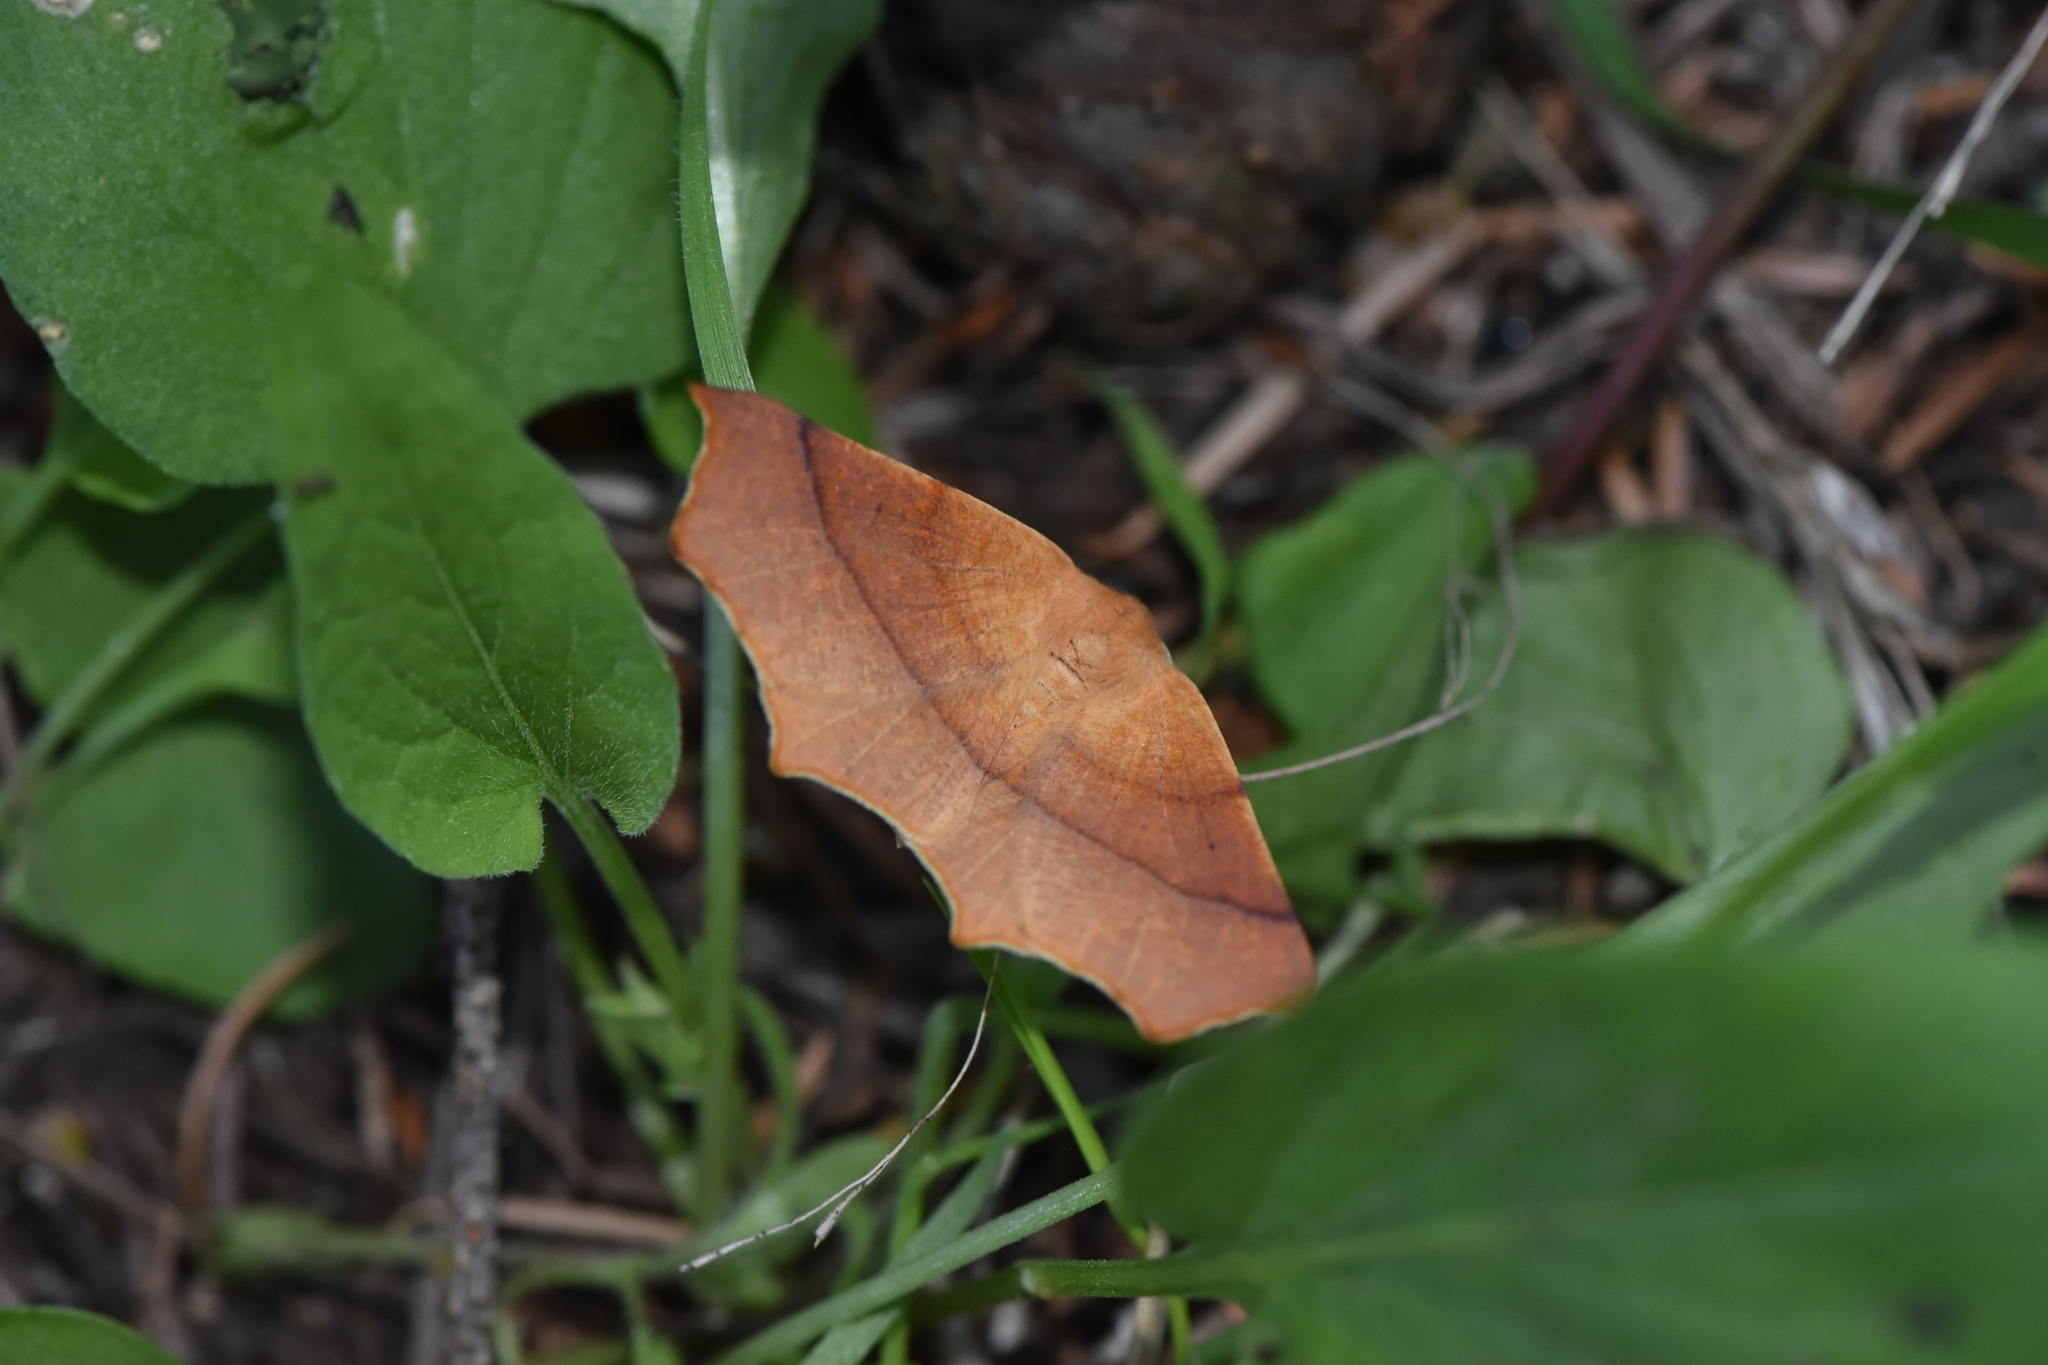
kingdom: Animalia
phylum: Arthropoda
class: Insecta
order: Lepidoptera
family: Geometridae
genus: Tetracis
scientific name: Tetracis cervinaria
